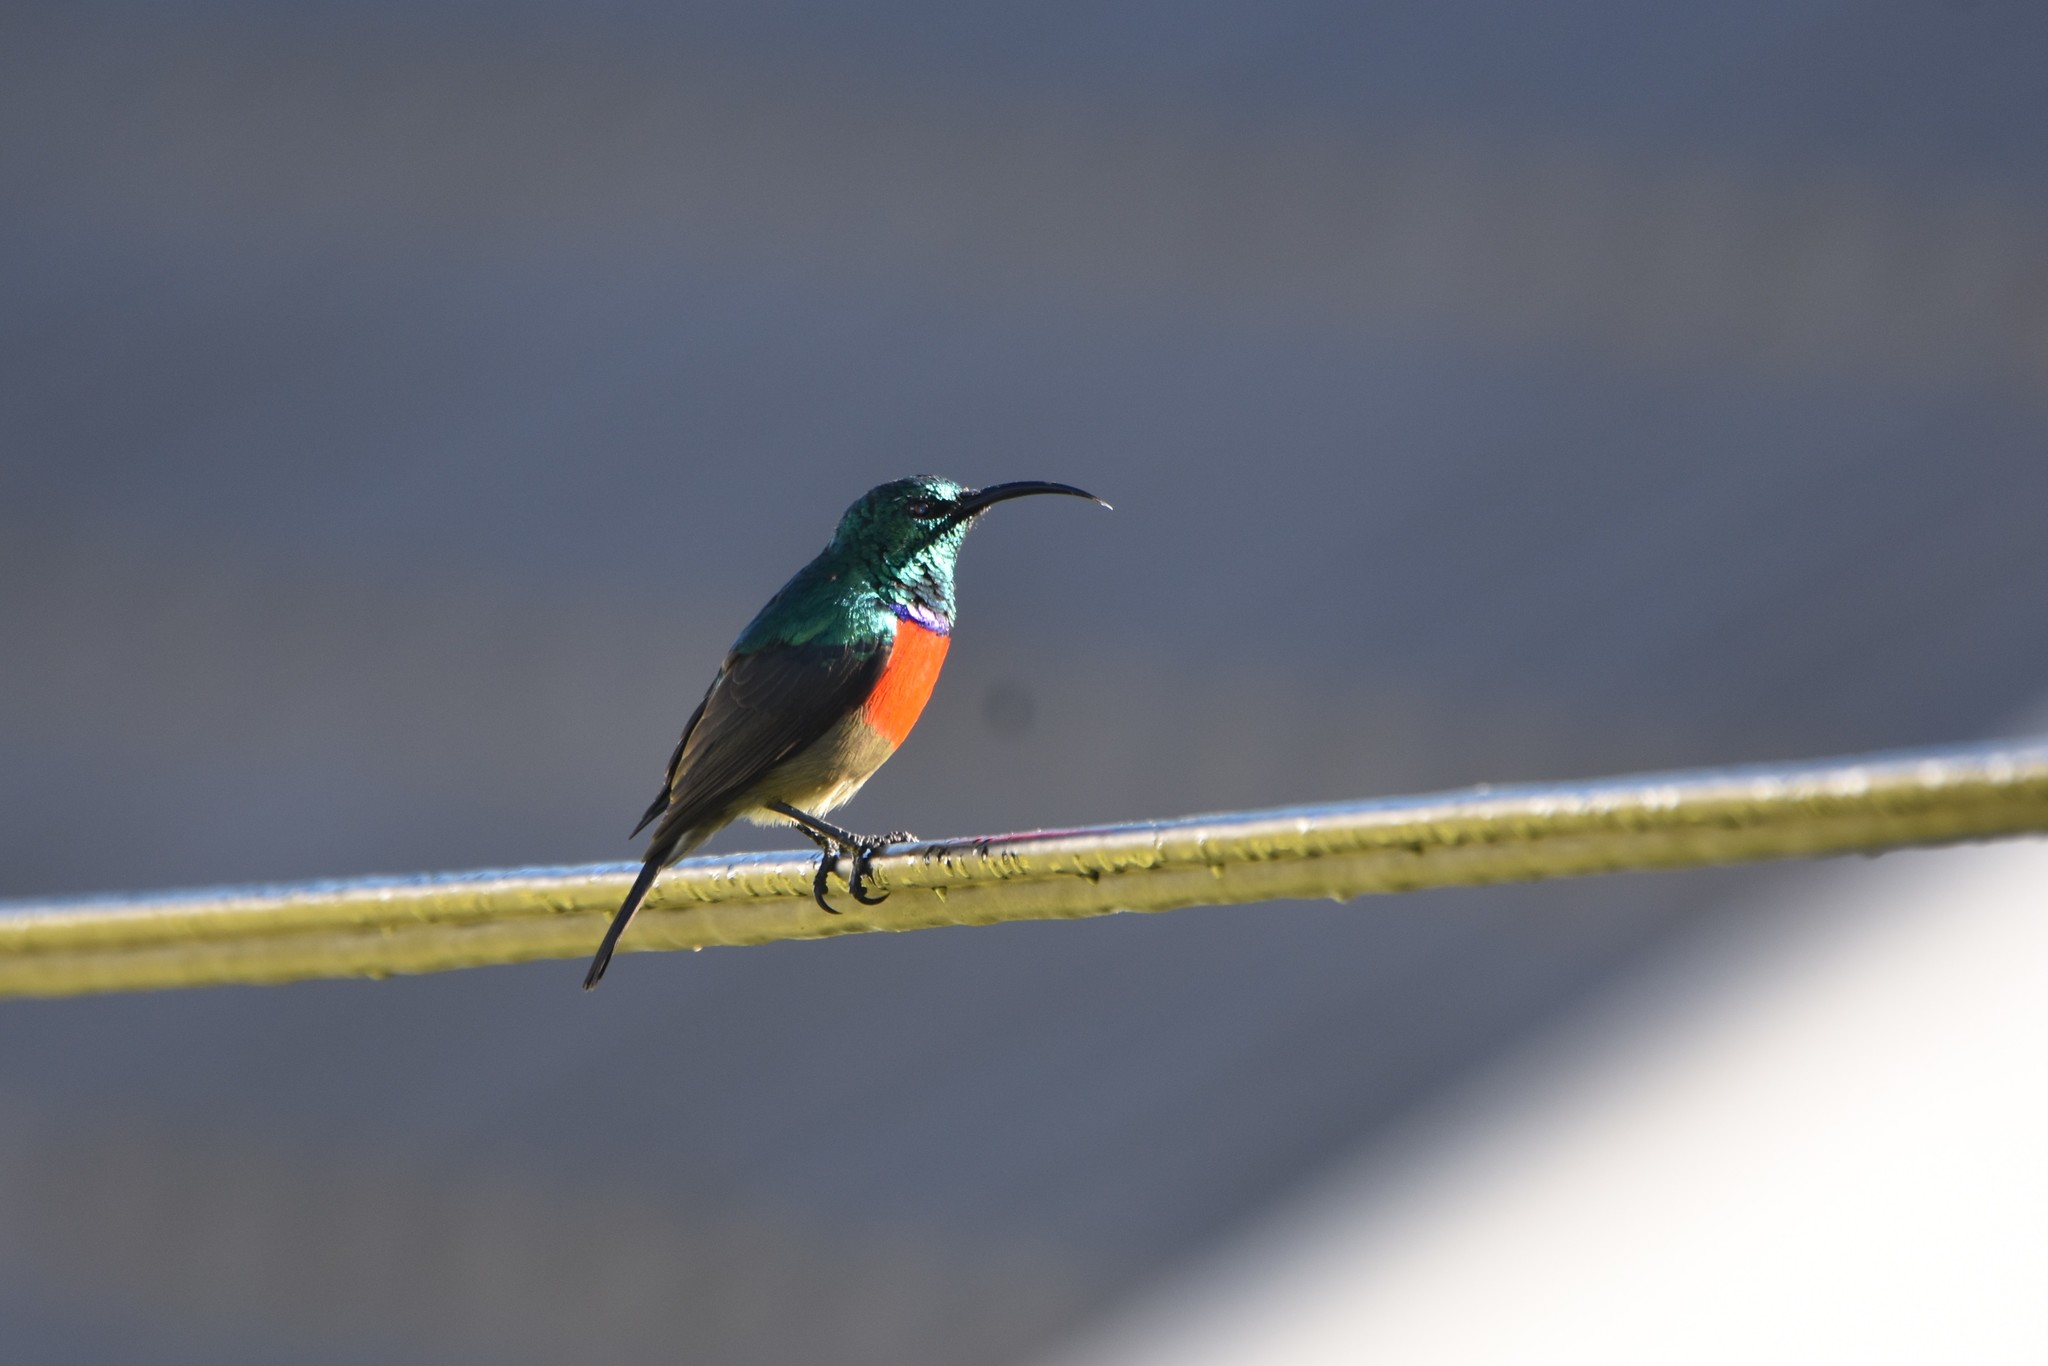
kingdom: Animalia
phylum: Chordata
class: Aves
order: Passeriformes
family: Nectariniidae
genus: Cinnyris
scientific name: Cinnyris afer
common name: Greater double-collared sunbird
